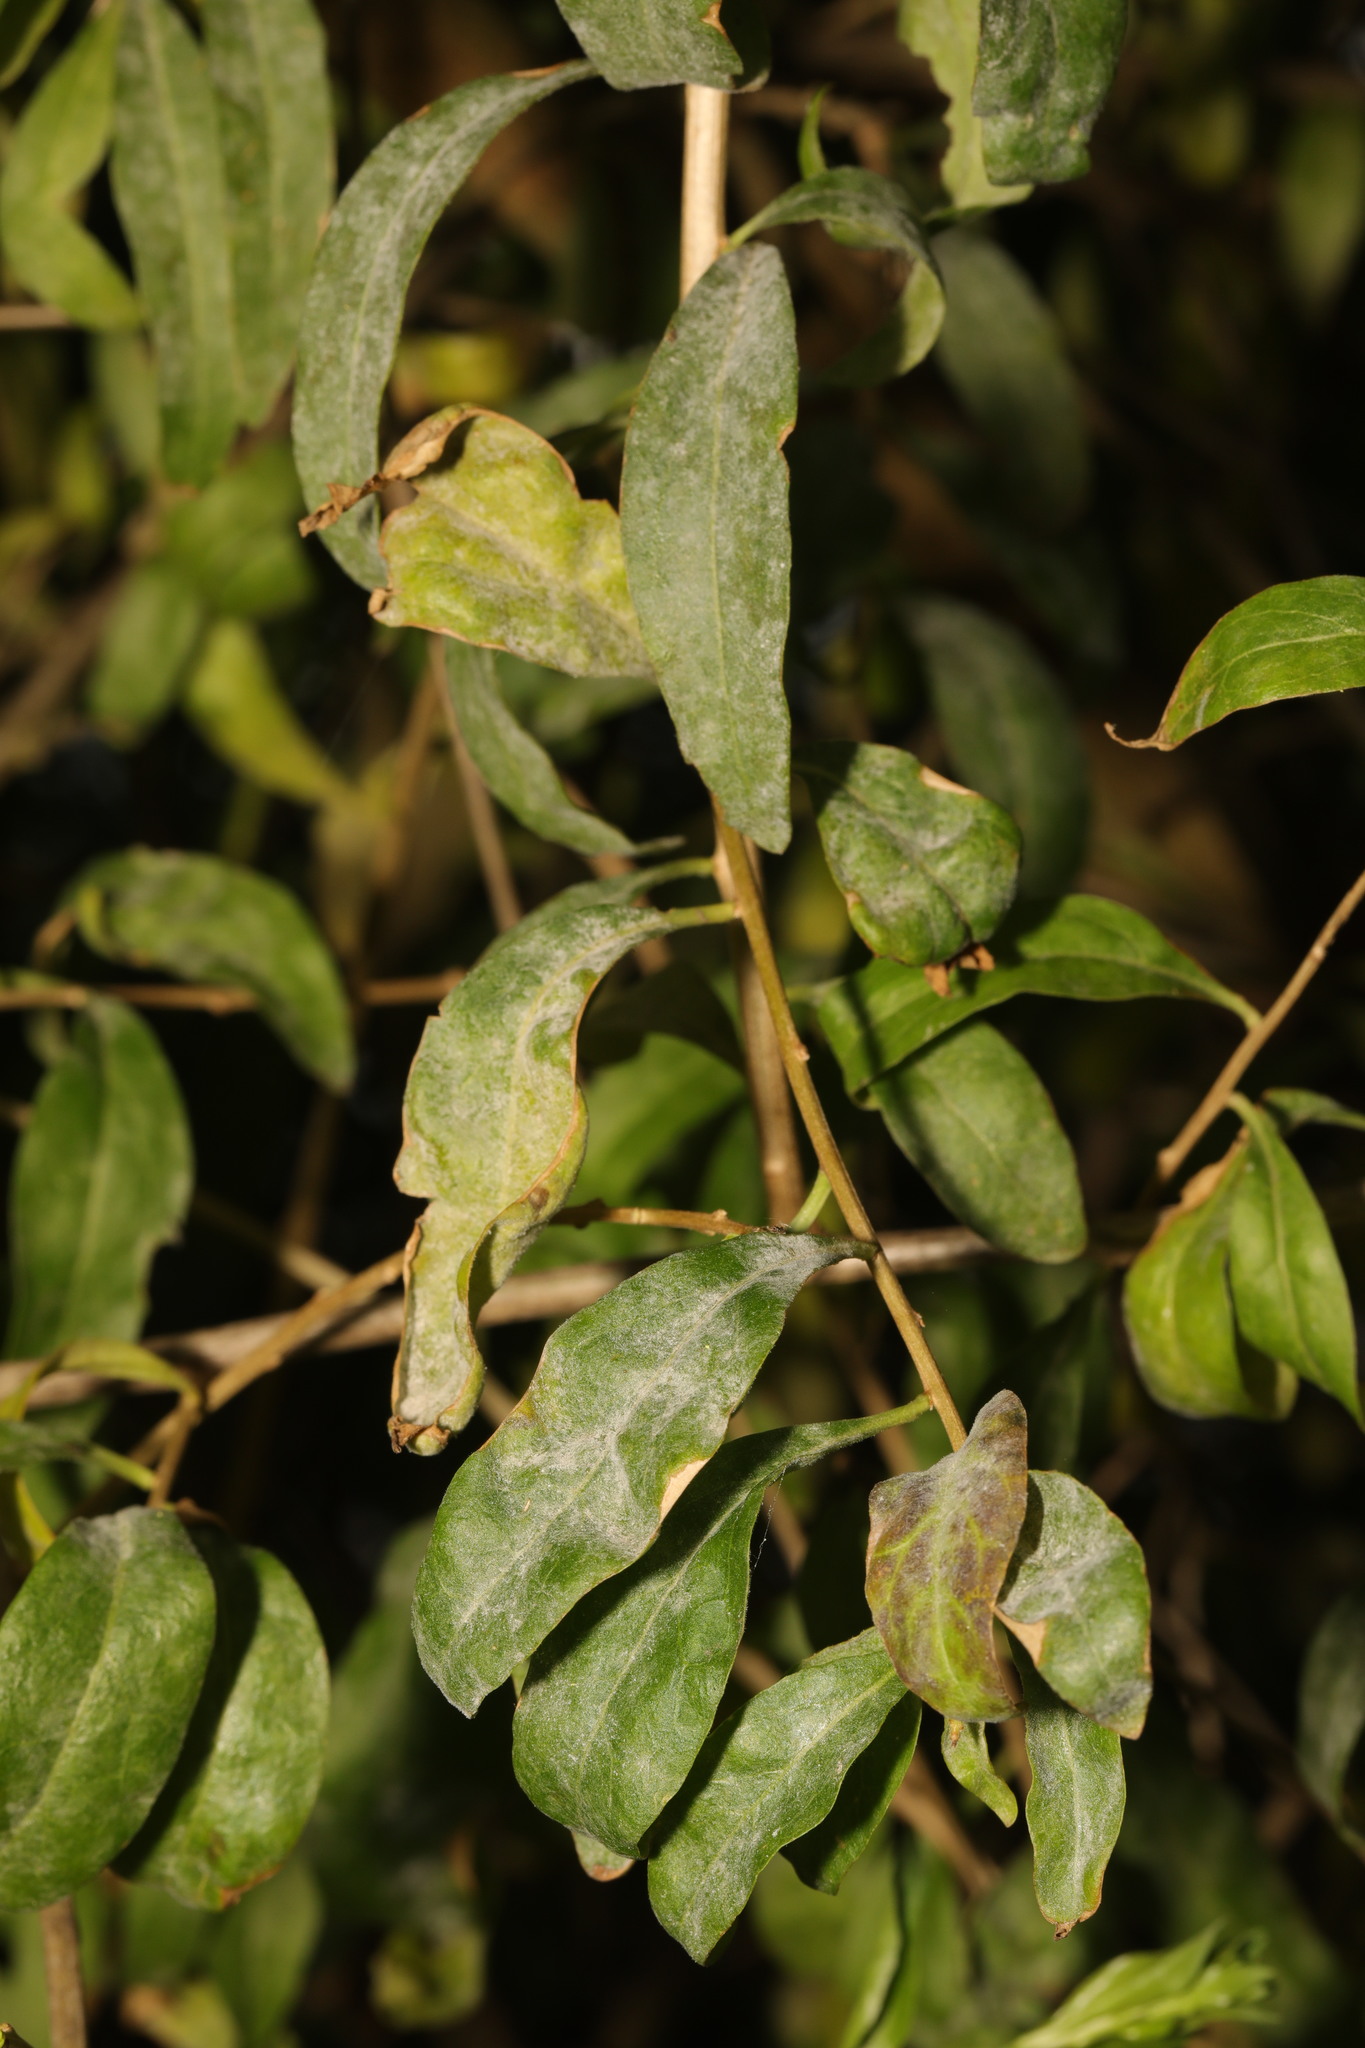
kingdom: Fungi
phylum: Ascomycota
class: Leotiomycetes
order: Helotiales
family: Erysiphaceae
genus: Erysiphe
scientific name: Erysiphe mougeotii
